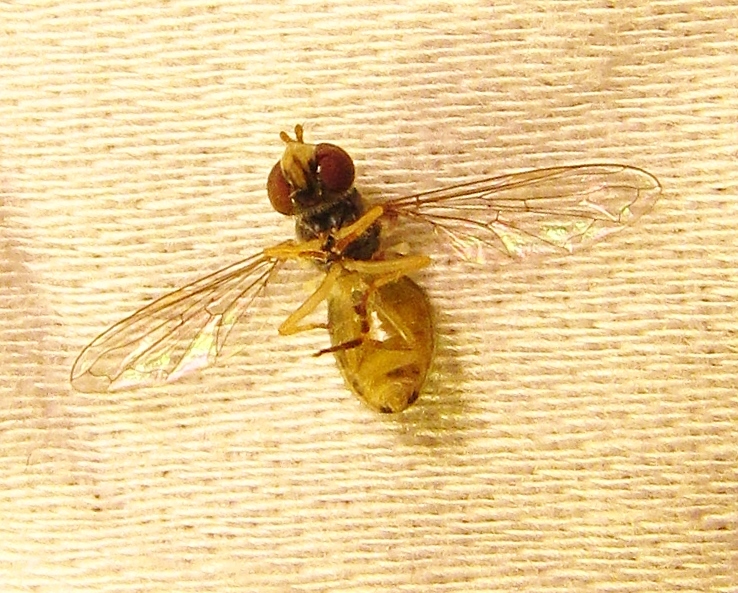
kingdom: Animalia
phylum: Arthropoda
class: Insecta
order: Diptera
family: Syrphidae
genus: Toxomerus
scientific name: Toxomerus marginatus
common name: Syrphid fly
